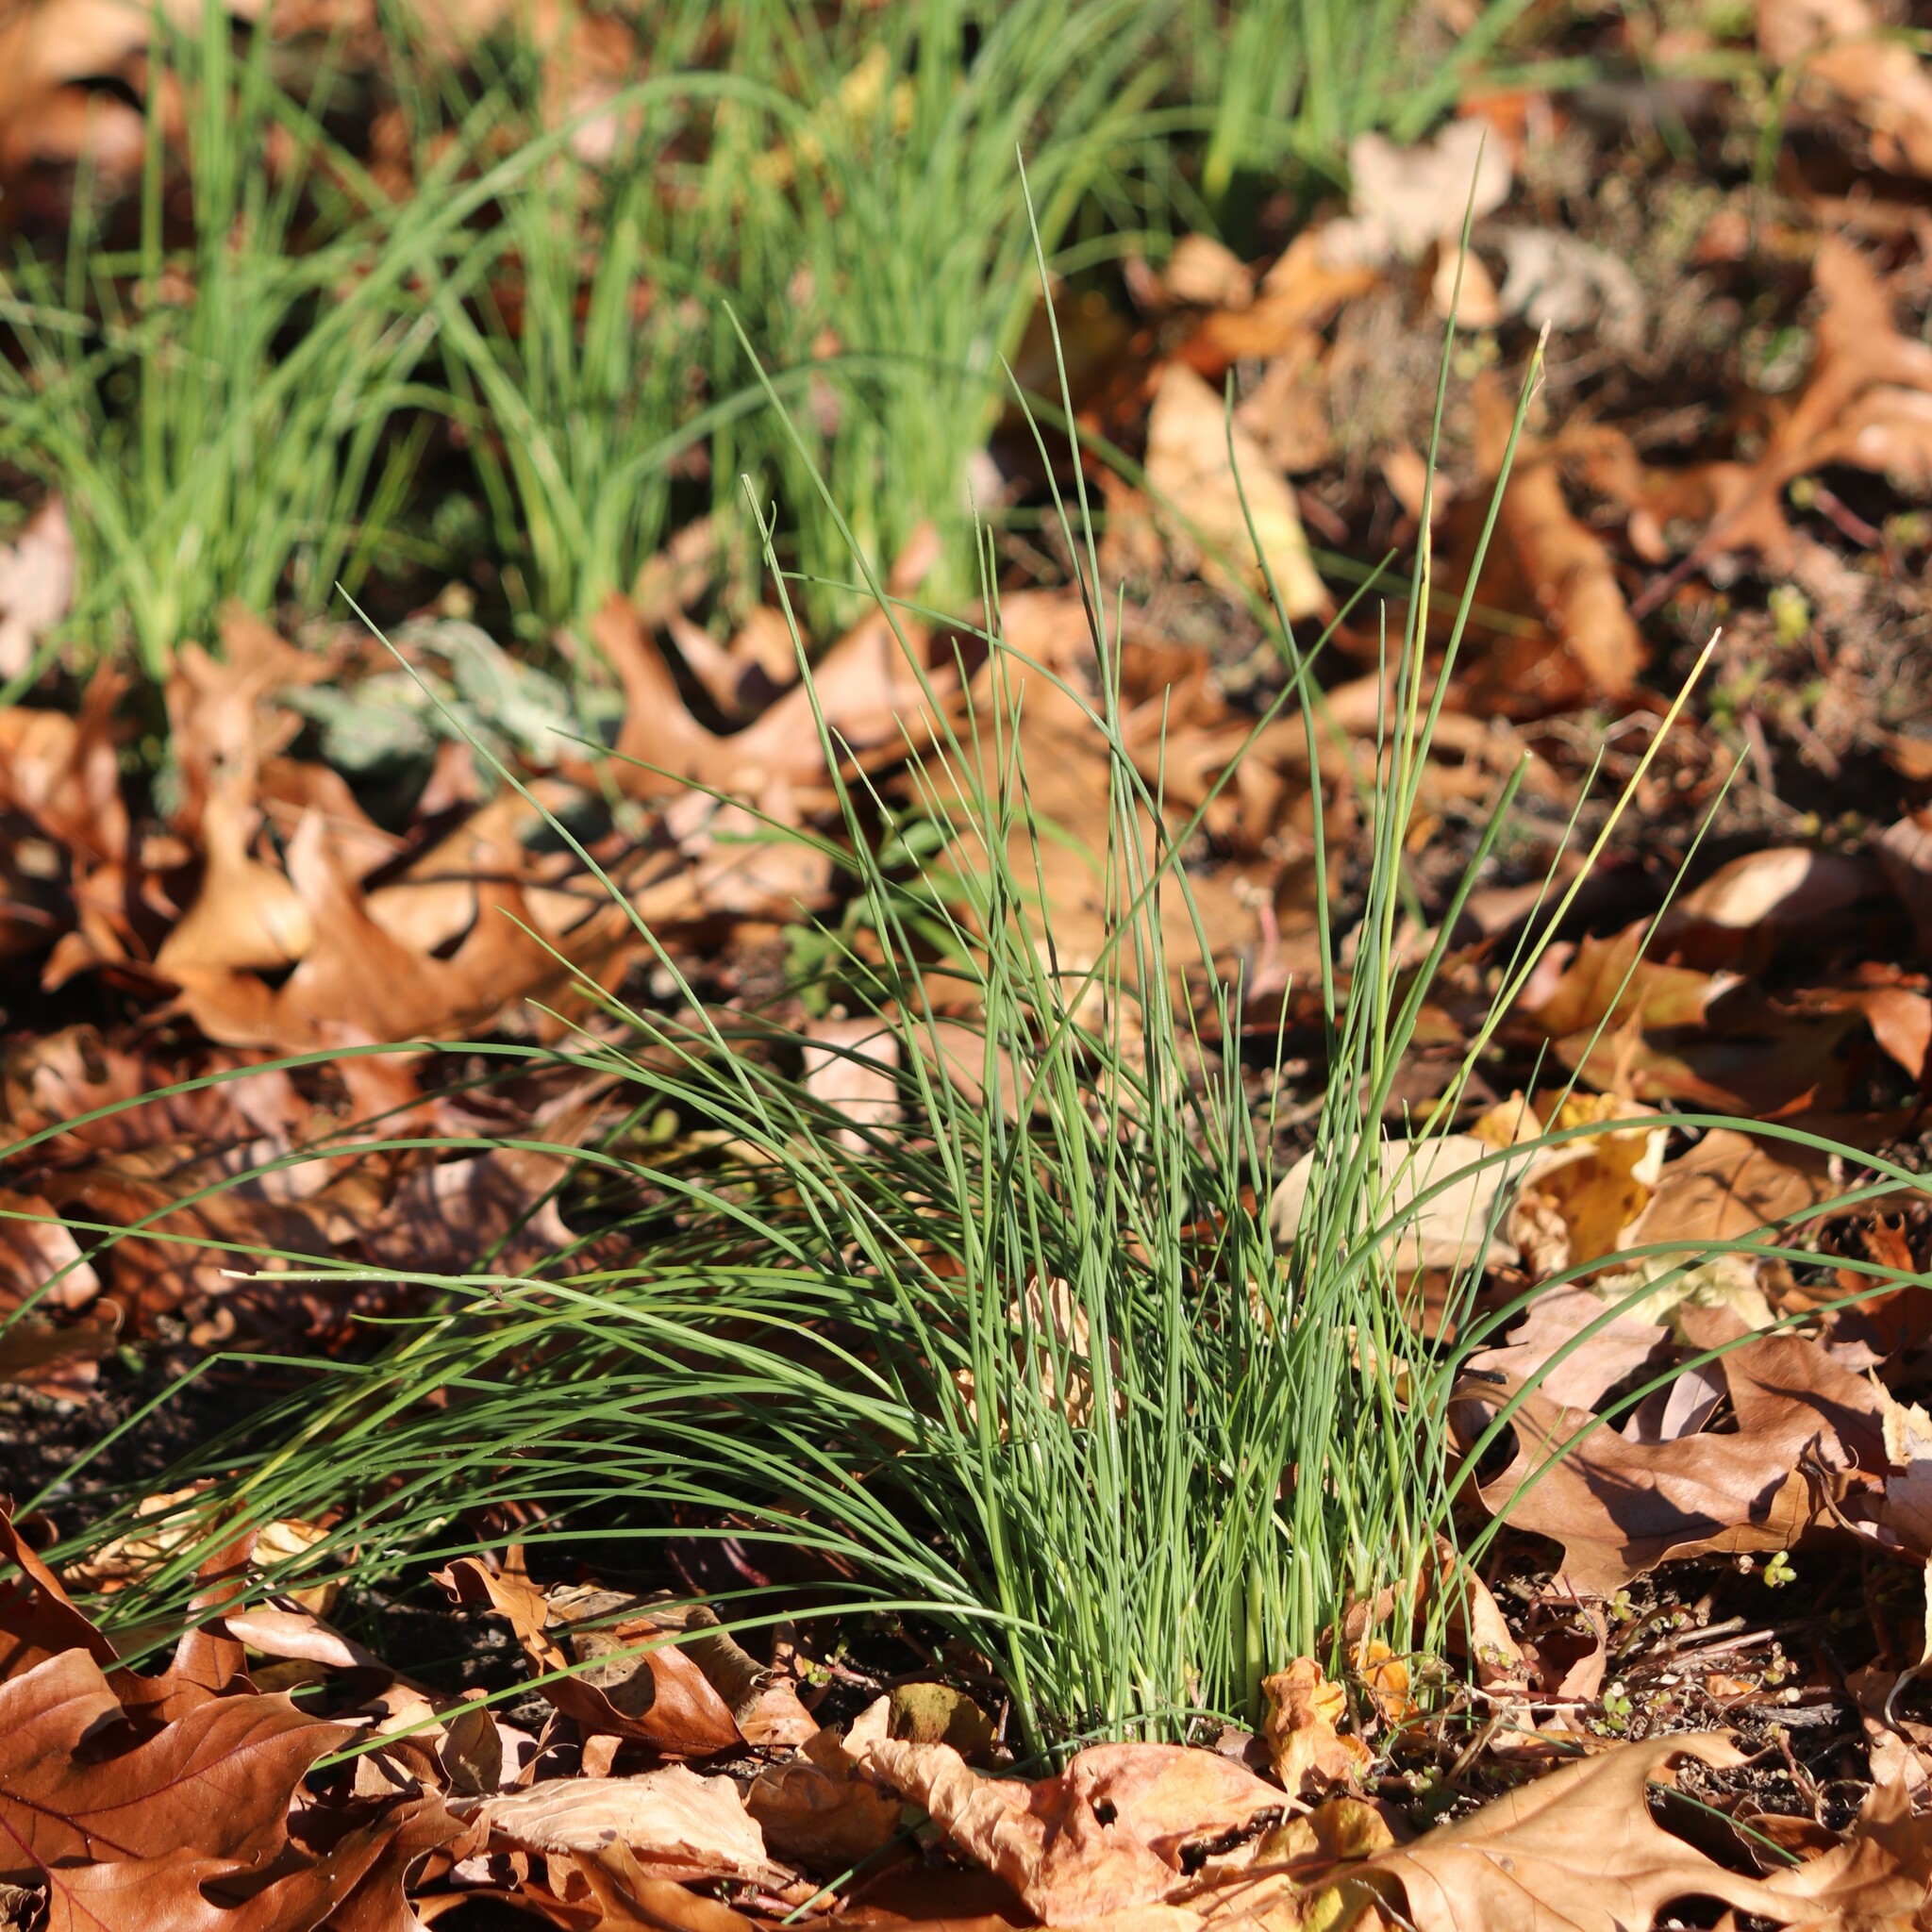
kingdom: Plantae
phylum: Tracheophyta
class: Liliopsida
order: Asparagales
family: Amaryllidaceae
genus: Allium
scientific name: Allium vineale
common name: Crow garlic
